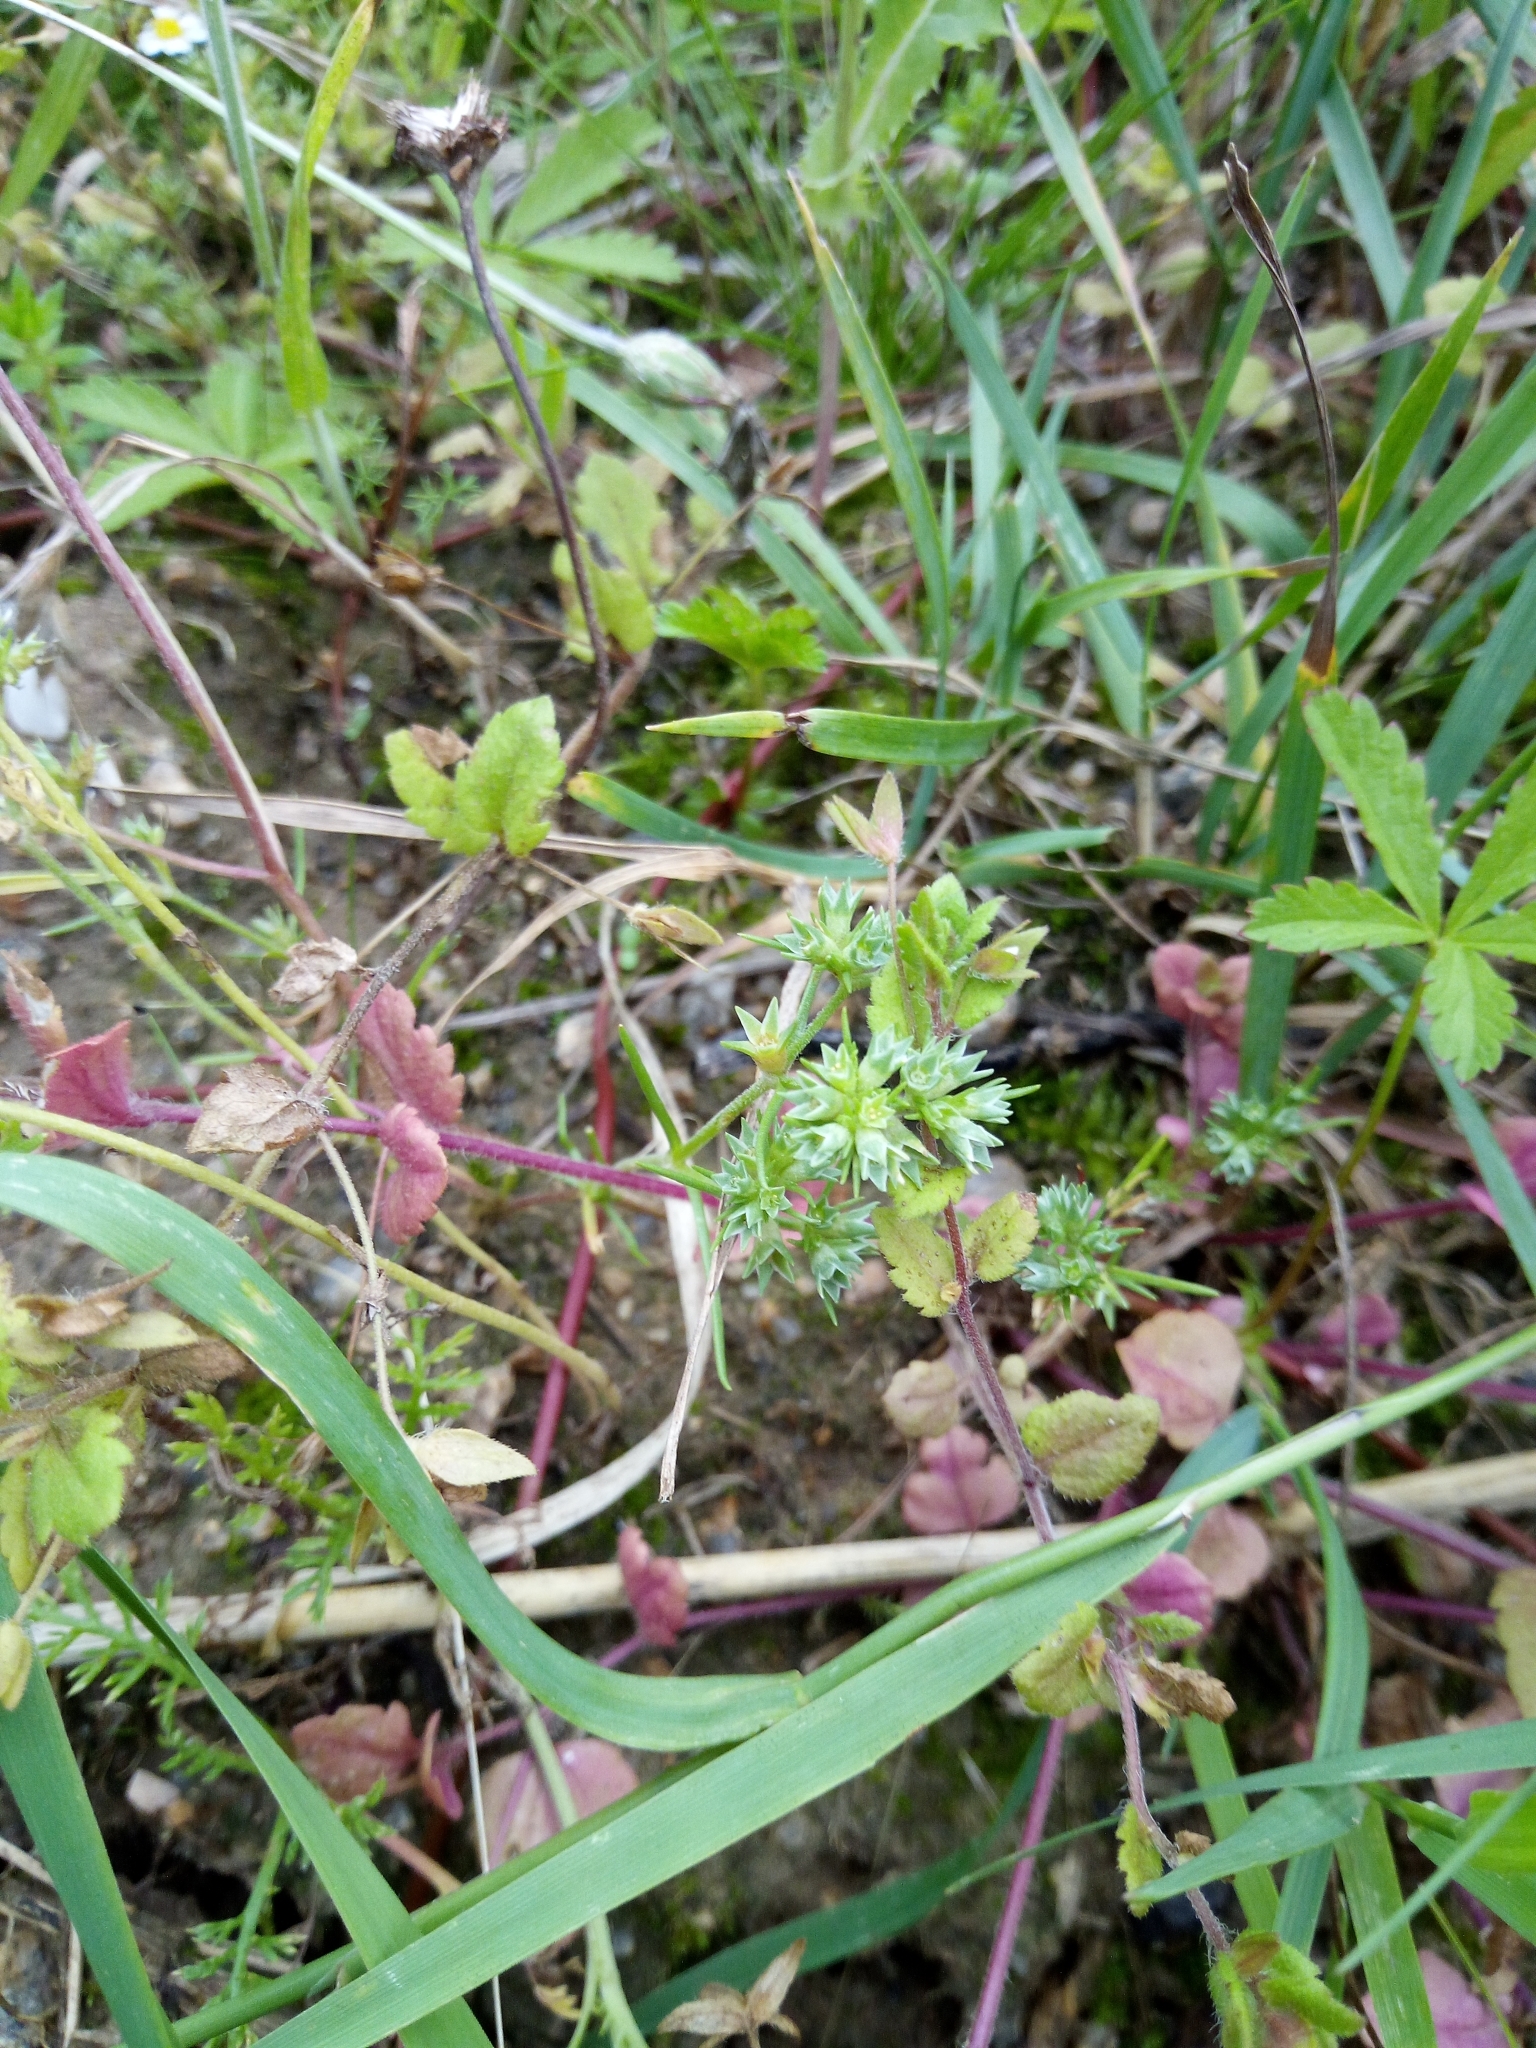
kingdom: Plantae
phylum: Tracheophyta
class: Magnoliopsida
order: Caryophyllales
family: Caryophyllaceae
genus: Scleranthus
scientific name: Scleranthus annuus
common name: Annual knawel
